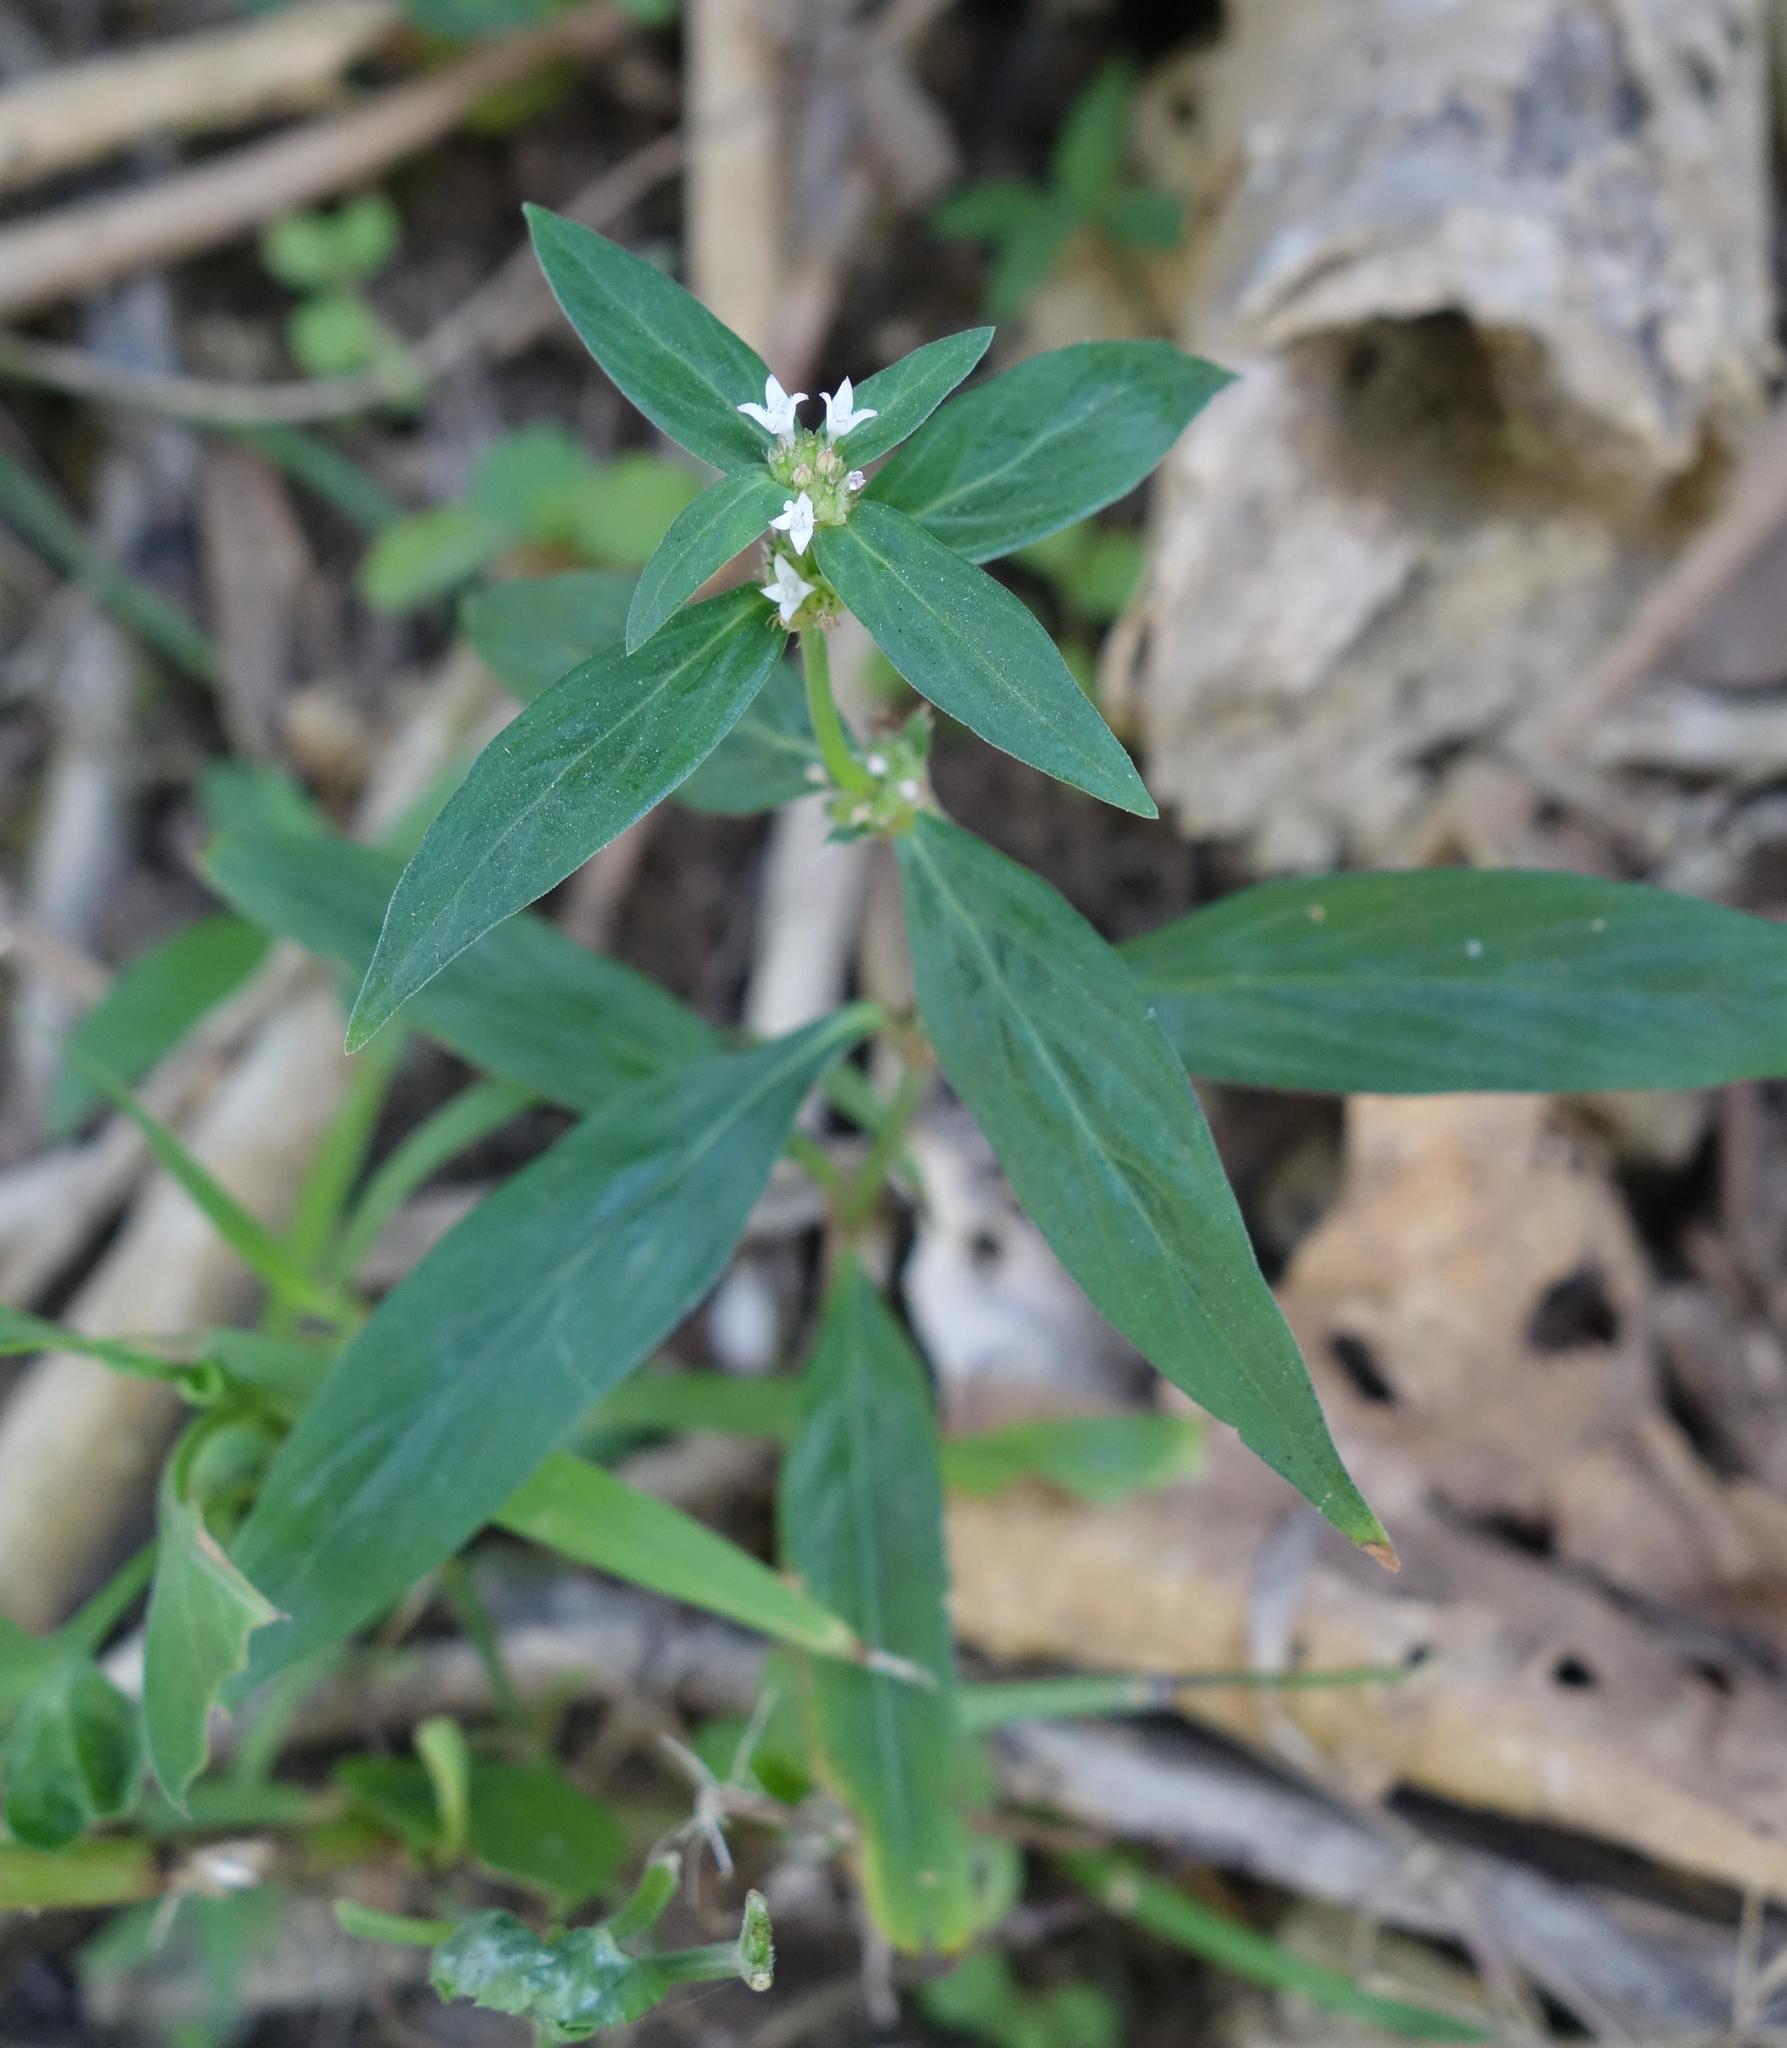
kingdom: Plantae
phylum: Tracheophyta
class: Magnoliopsida
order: Gentianales
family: Rubiaceae
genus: Spermacoce
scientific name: Spermacoce remota
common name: Woodland false buttonweed
